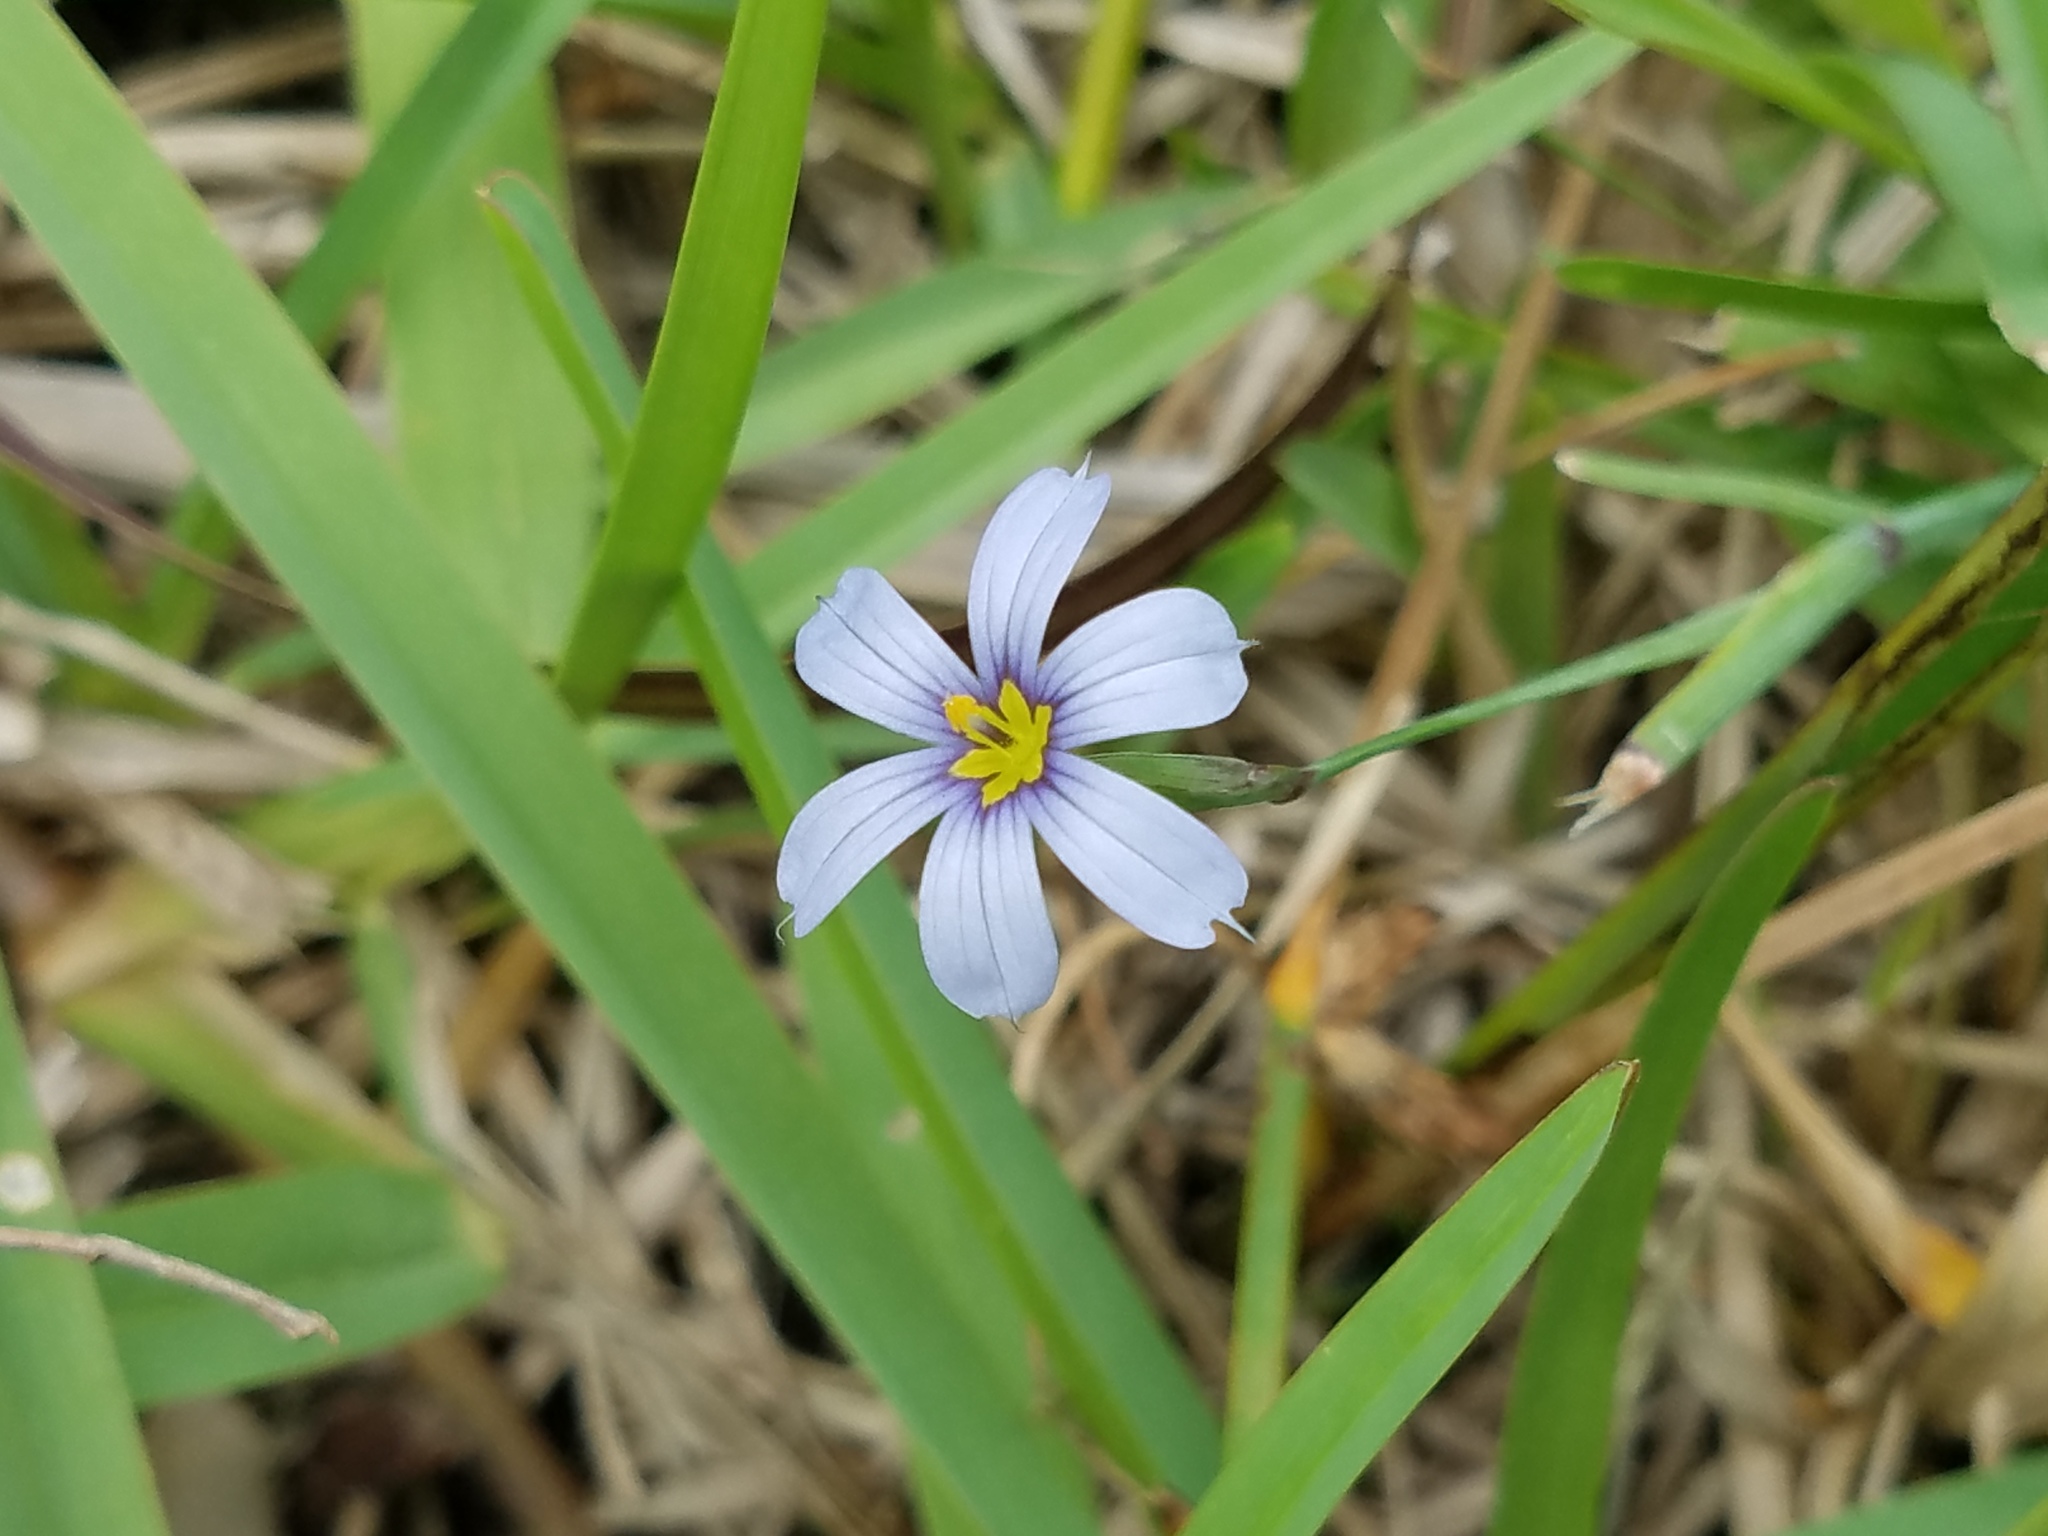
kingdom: Plantae
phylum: Tracheophyta
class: Liliopsida
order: Asparagales
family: Iridaceae
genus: Sisyrinchium
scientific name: Sisyrinchium biforme
